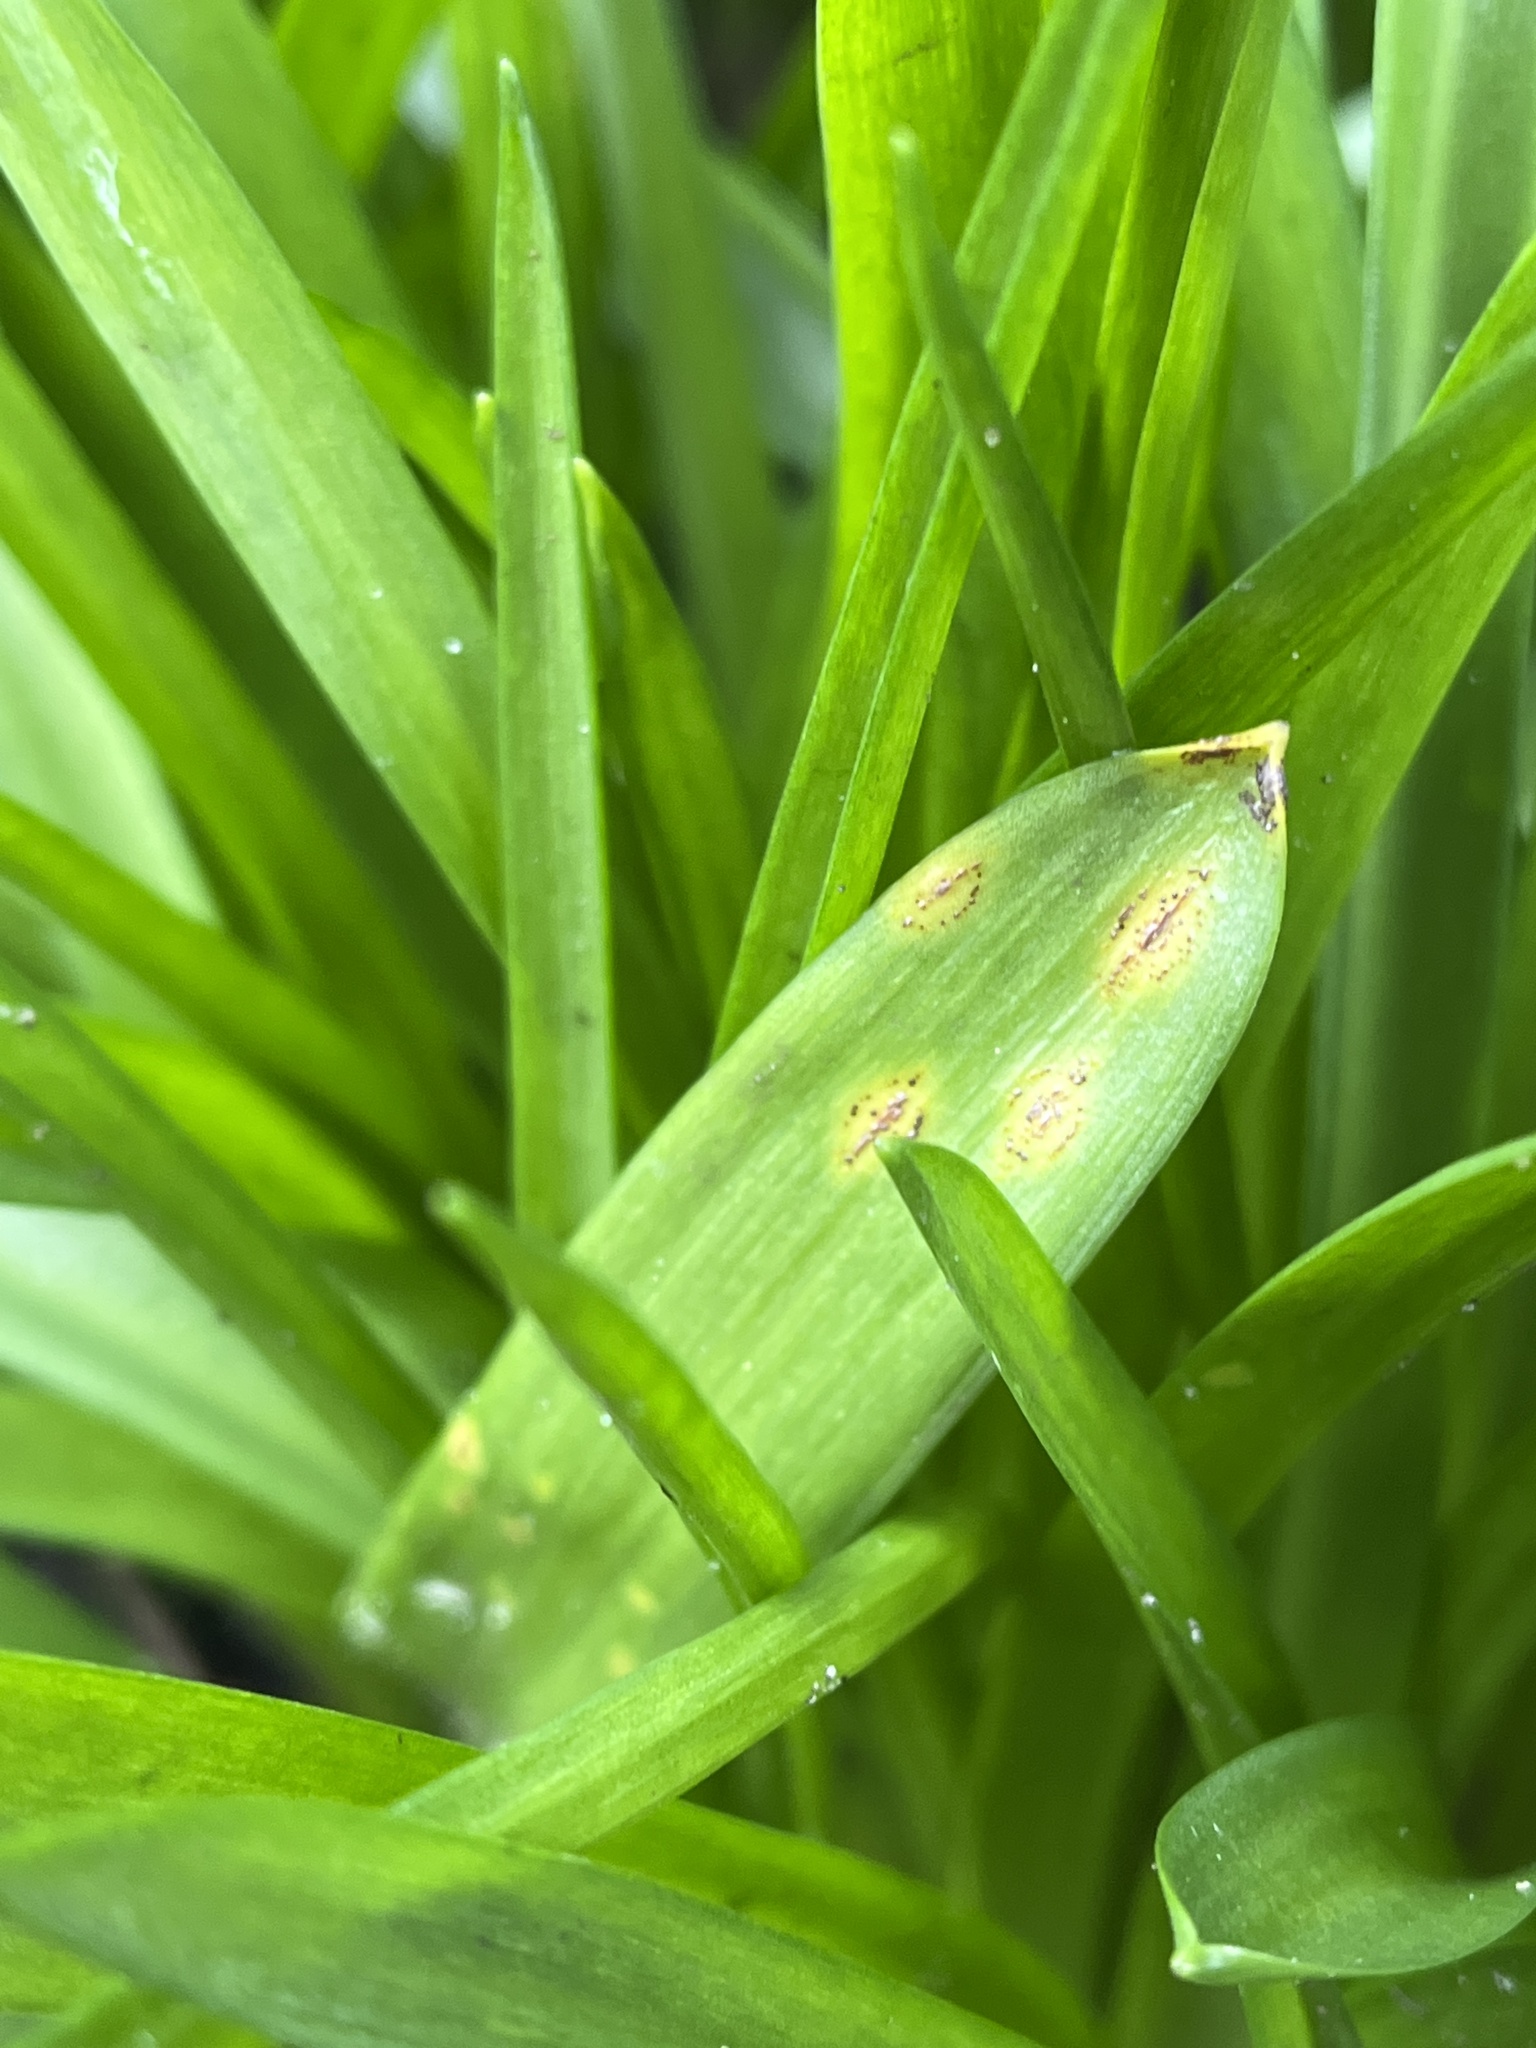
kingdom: Fungi
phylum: Basidiomycota
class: Pucciniomycetes
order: Pucciniales
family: Pucciniaceae
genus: Uromyces
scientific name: Uromyces hyacinthi
